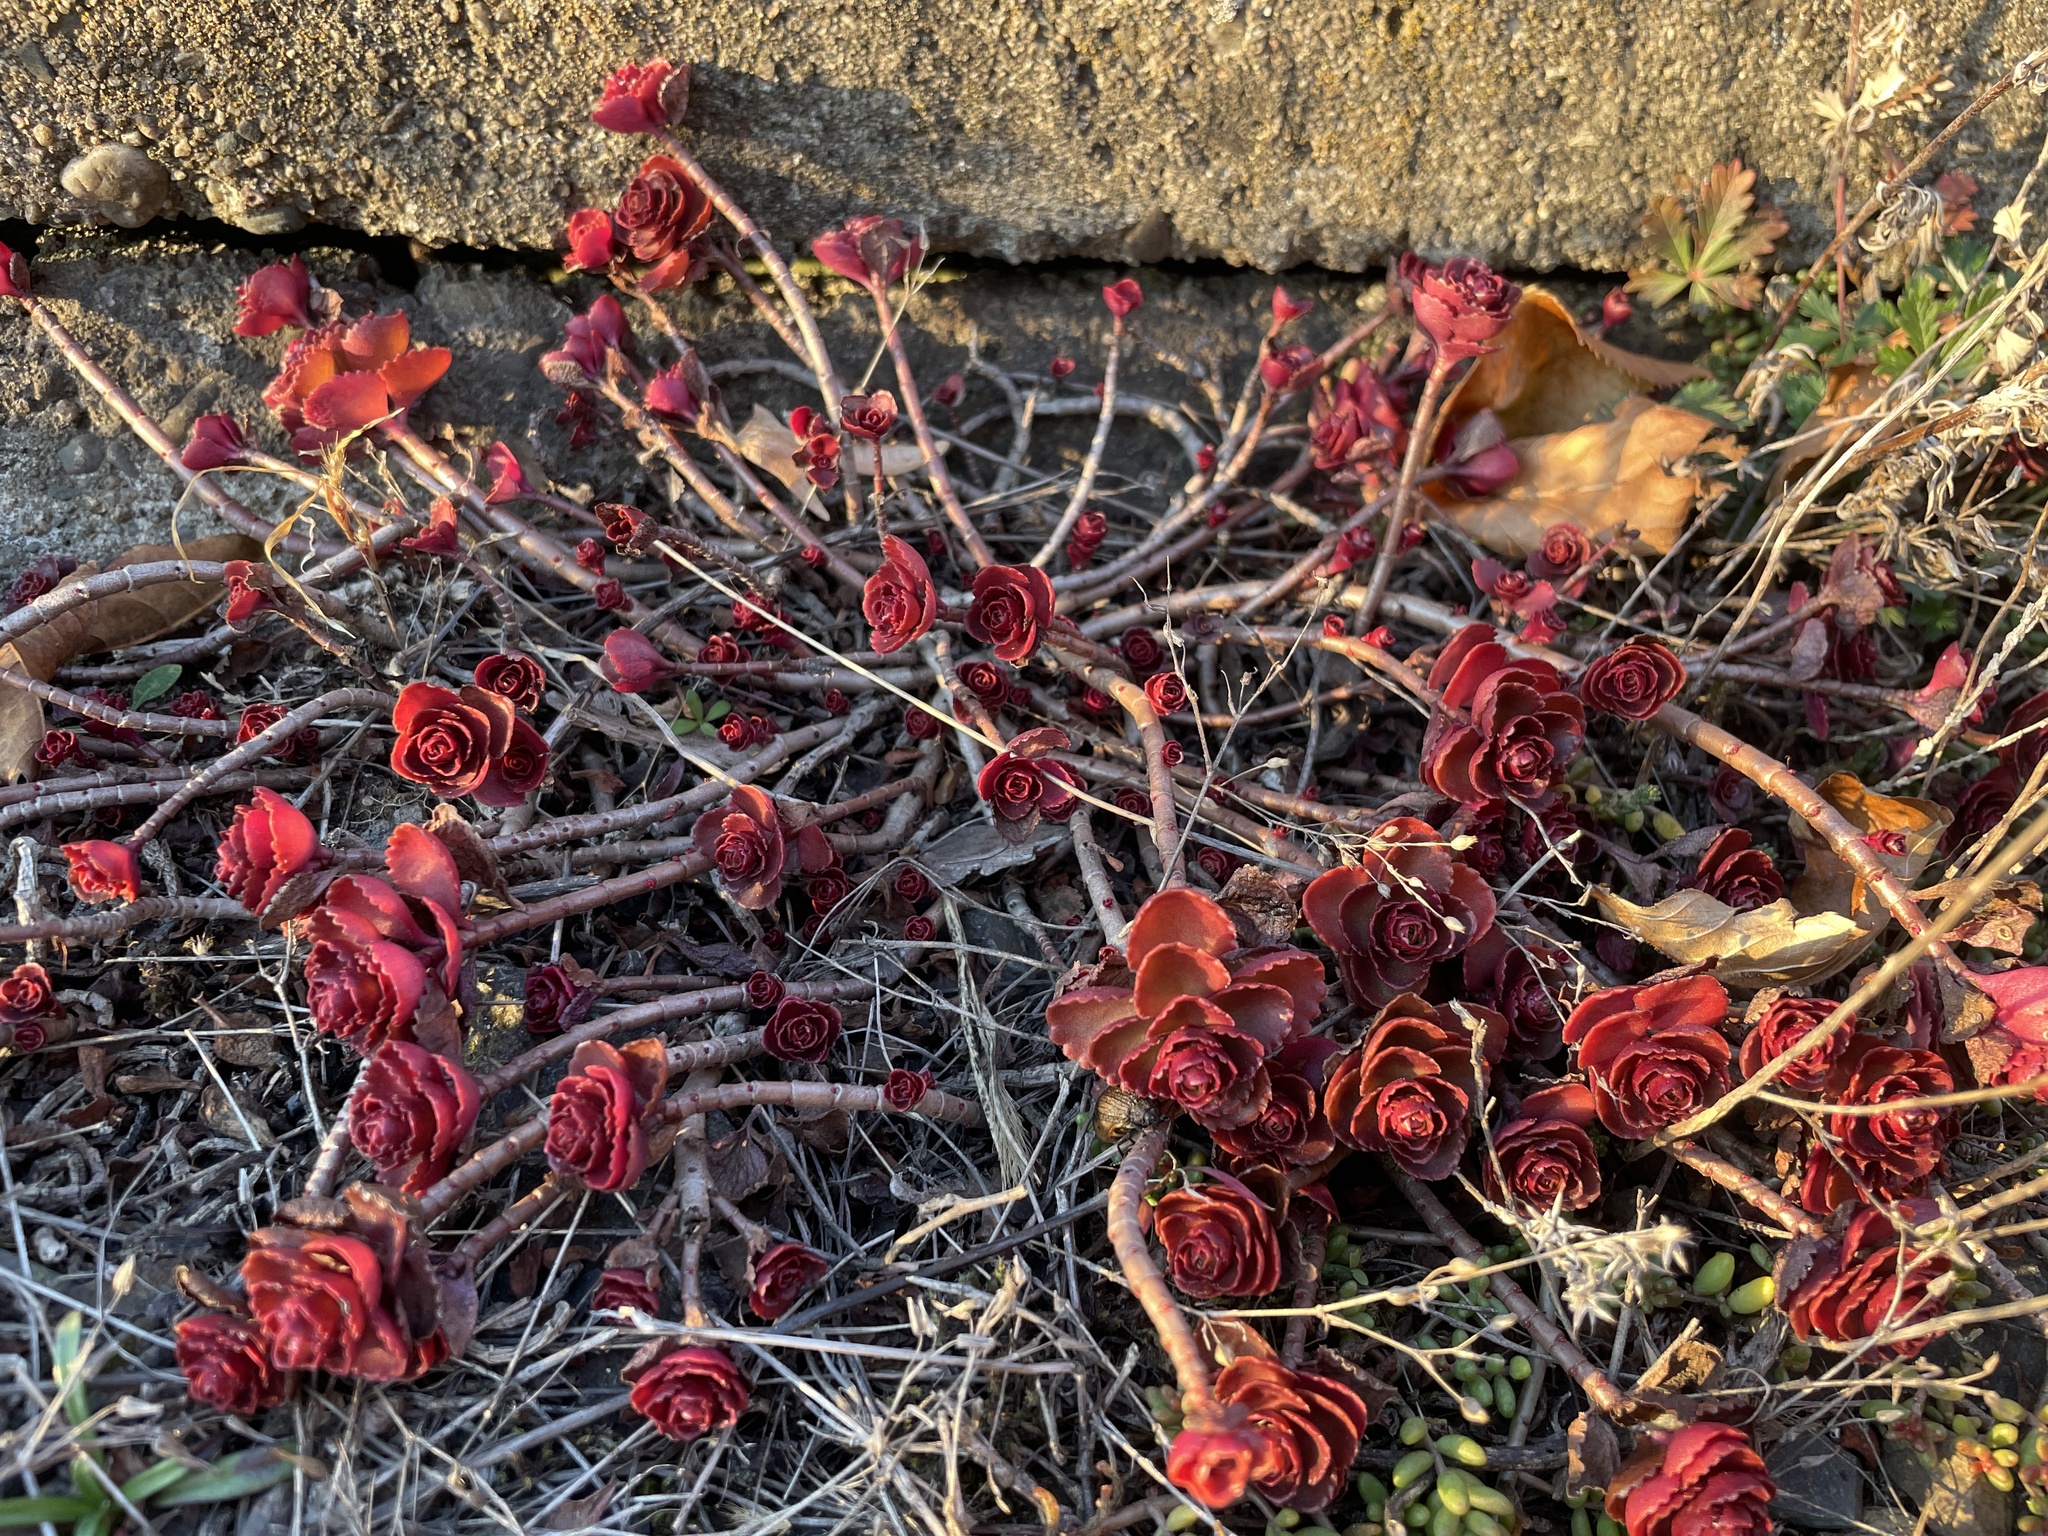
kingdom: Plantae
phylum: Tracheophyta
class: Magnoliopsida
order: Saxifragales
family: Crassulaceae
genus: Phedimus
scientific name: Phedimus spurius
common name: Caucasian stonecrop
